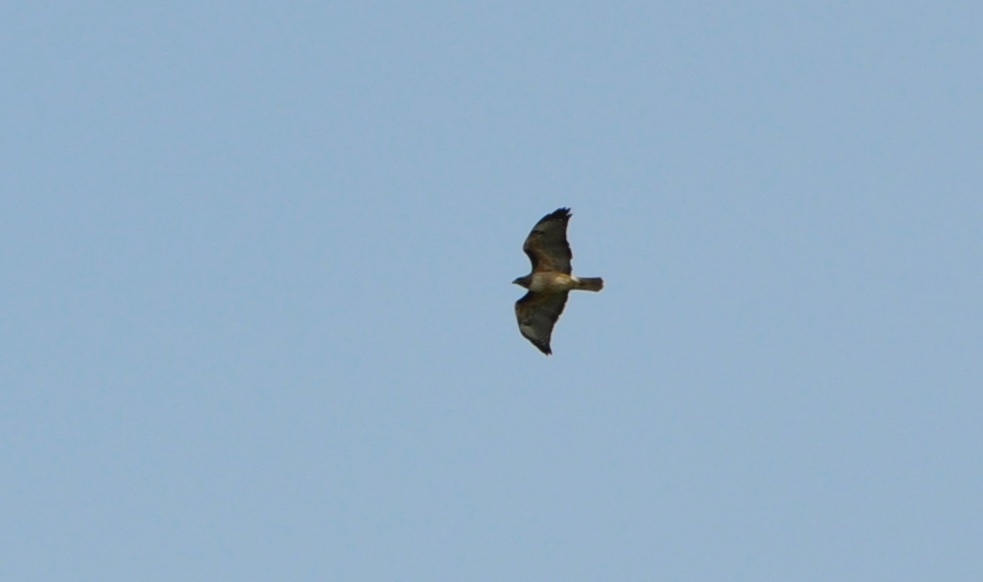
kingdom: Animalia
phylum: Chordata
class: Aves
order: Accipitriformes
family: Accipitridae
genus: Buteo
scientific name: Buteo jamaicensis
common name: Red-tailed hawk
